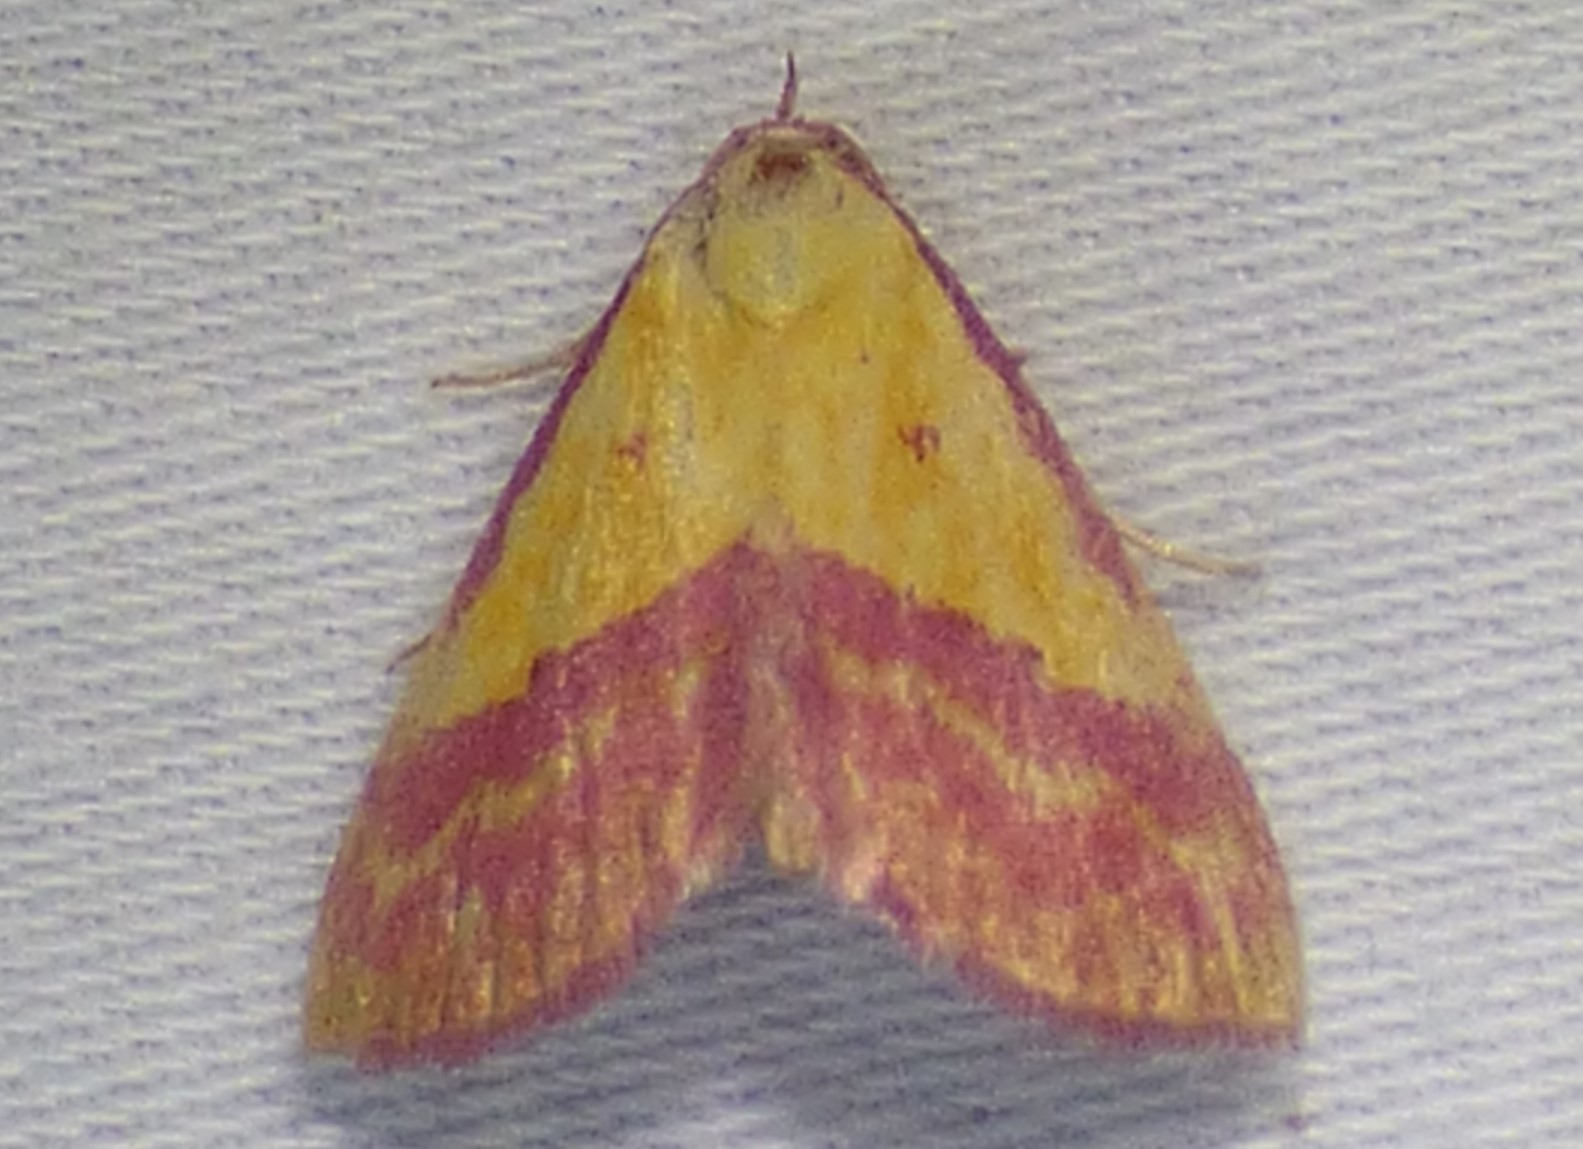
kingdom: Animalia
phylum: Arthropoda
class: Insecta
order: Lepidoptera
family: Erebidae
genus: Phytometra
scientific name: Phytometra rhodarialis
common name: Pink-bordered yellow
